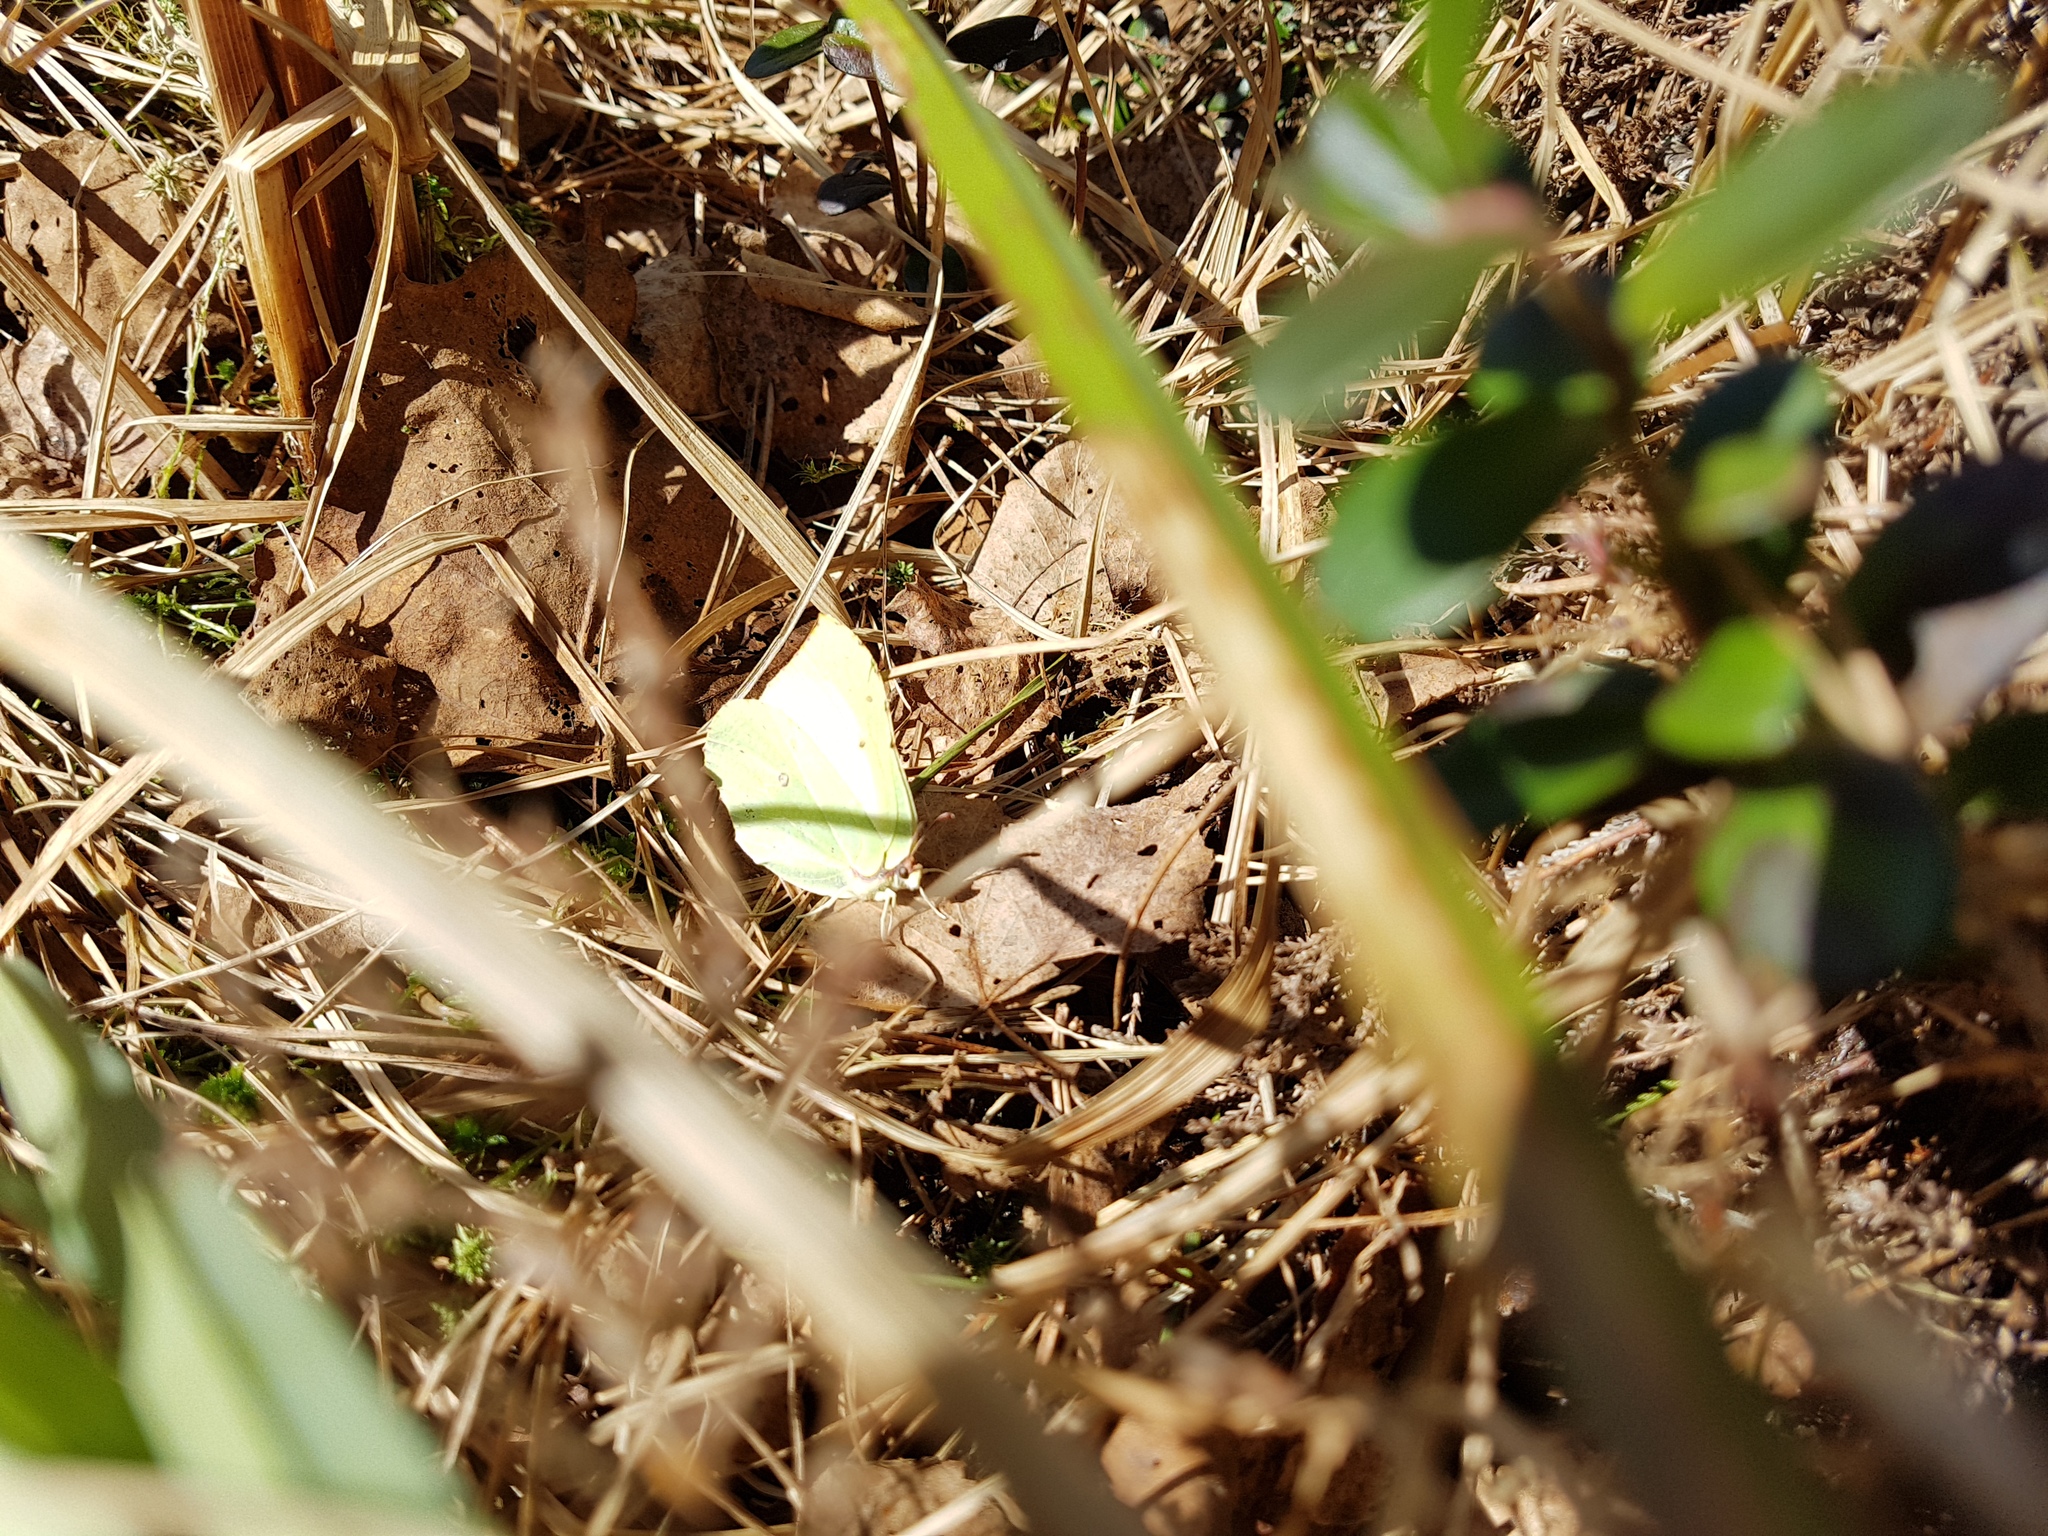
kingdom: Animalia
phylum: Arthropoda
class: Insecta
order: Lepidoptera
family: Pieridae
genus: Gonepteryx
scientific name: Gonepteryx rhamni
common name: Brimstone
